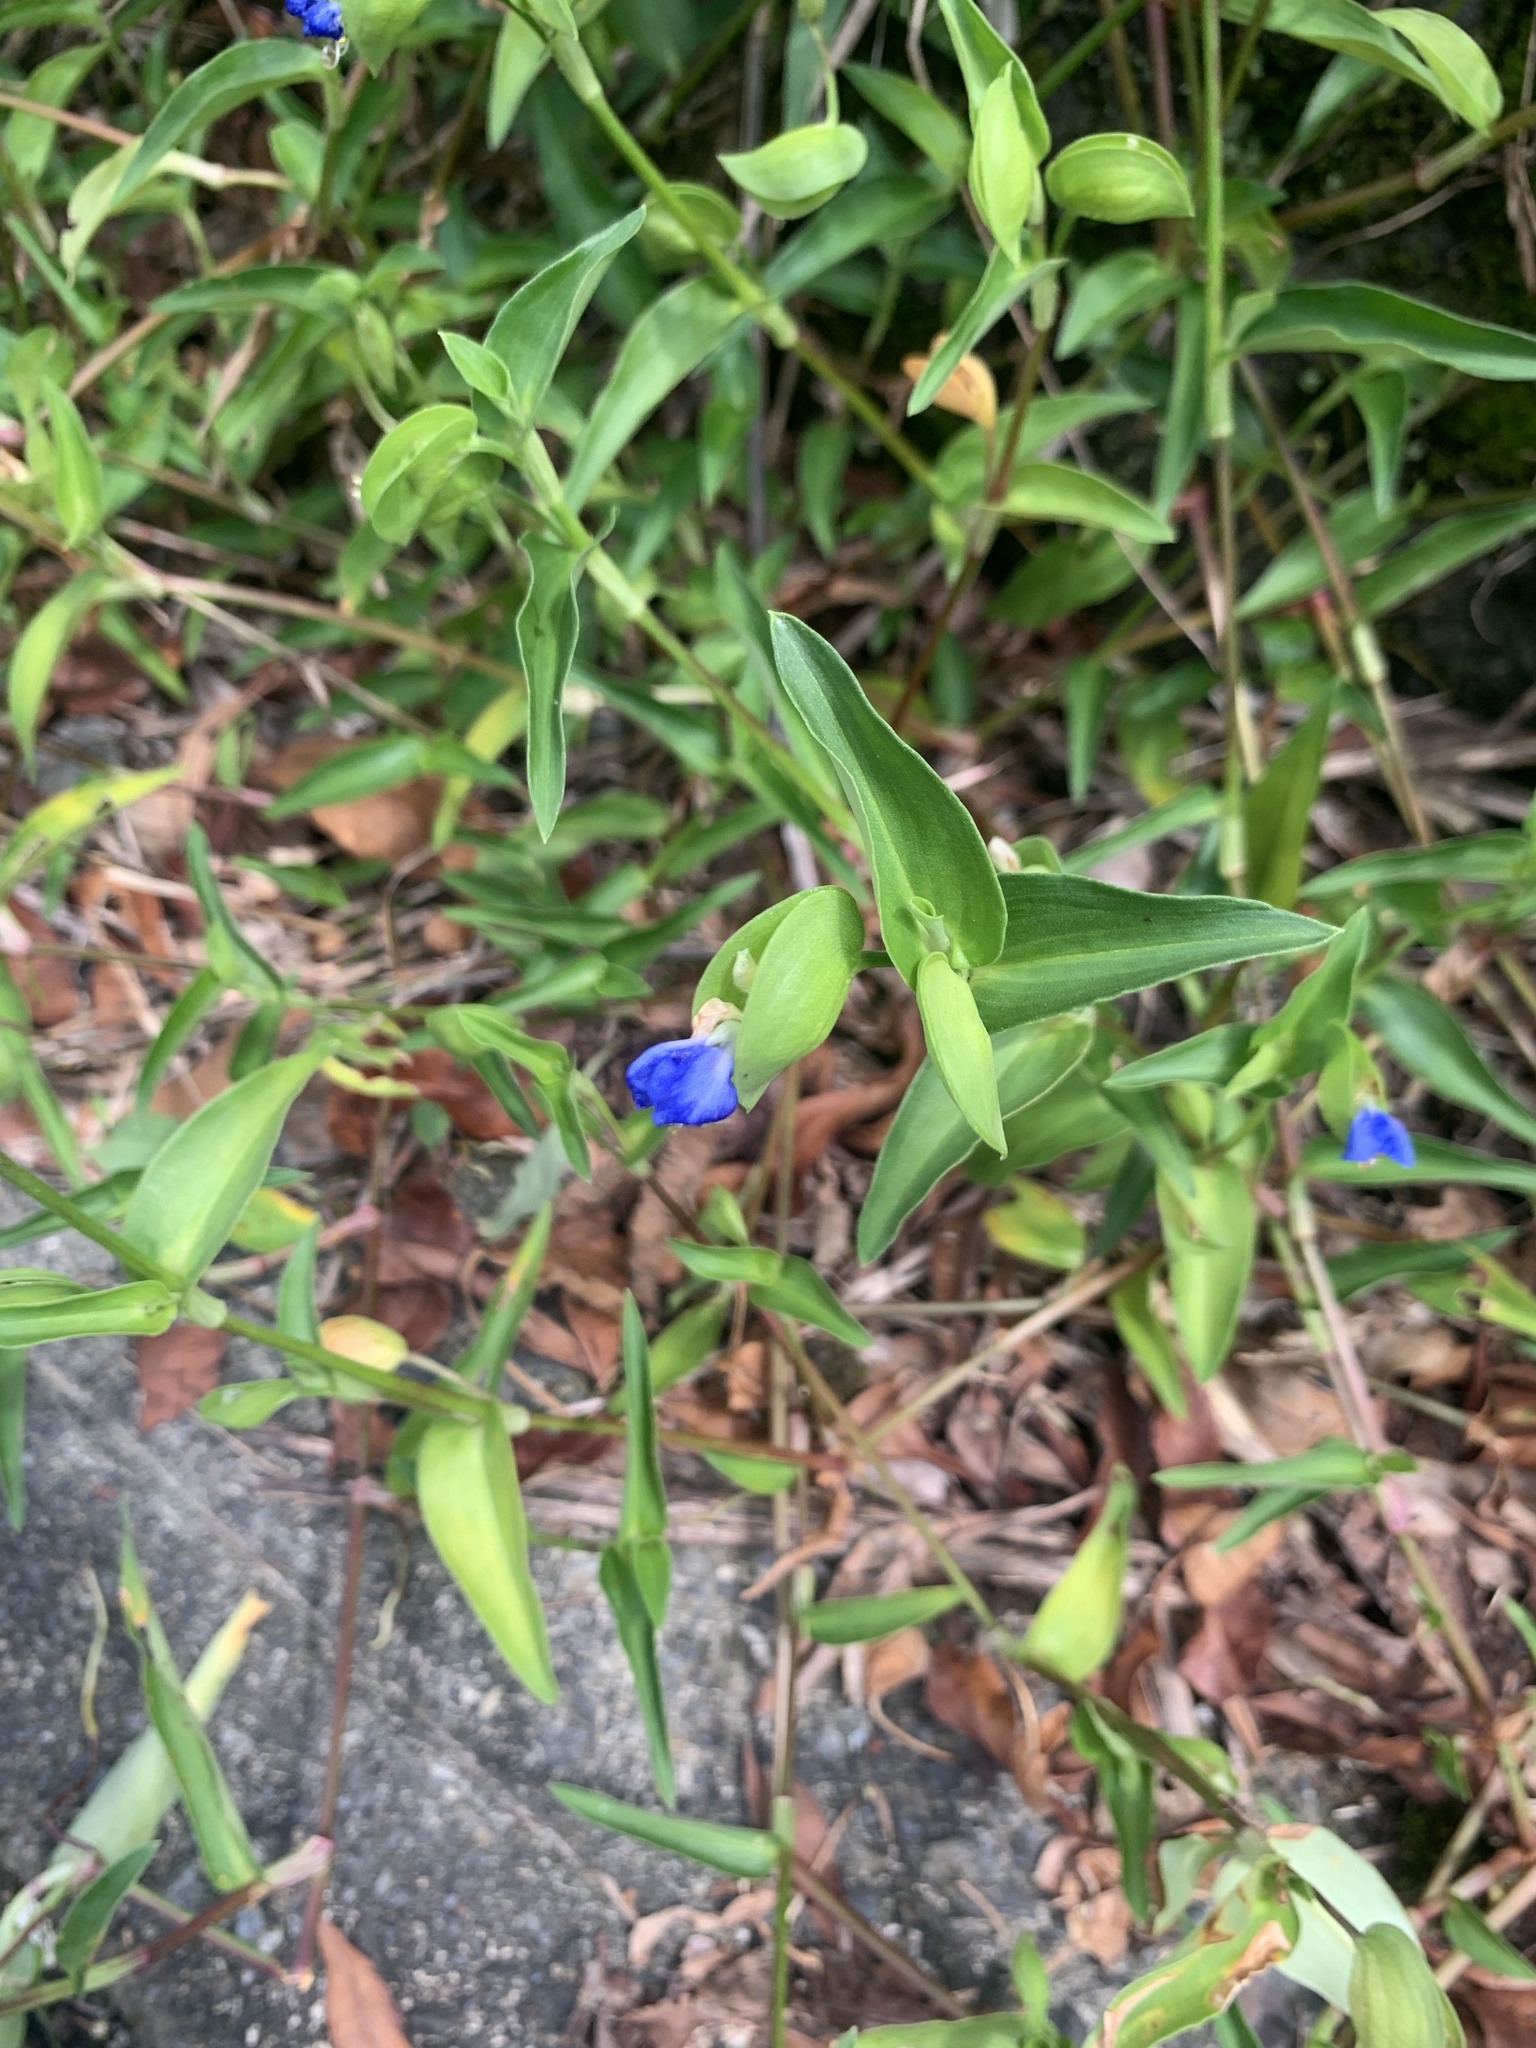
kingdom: Plantae
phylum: Tracheophyta
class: Liliopsida
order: Commelinales
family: Commelinaceae
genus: Commelina
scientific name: Commelina communis
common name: Asiatic dayflower
